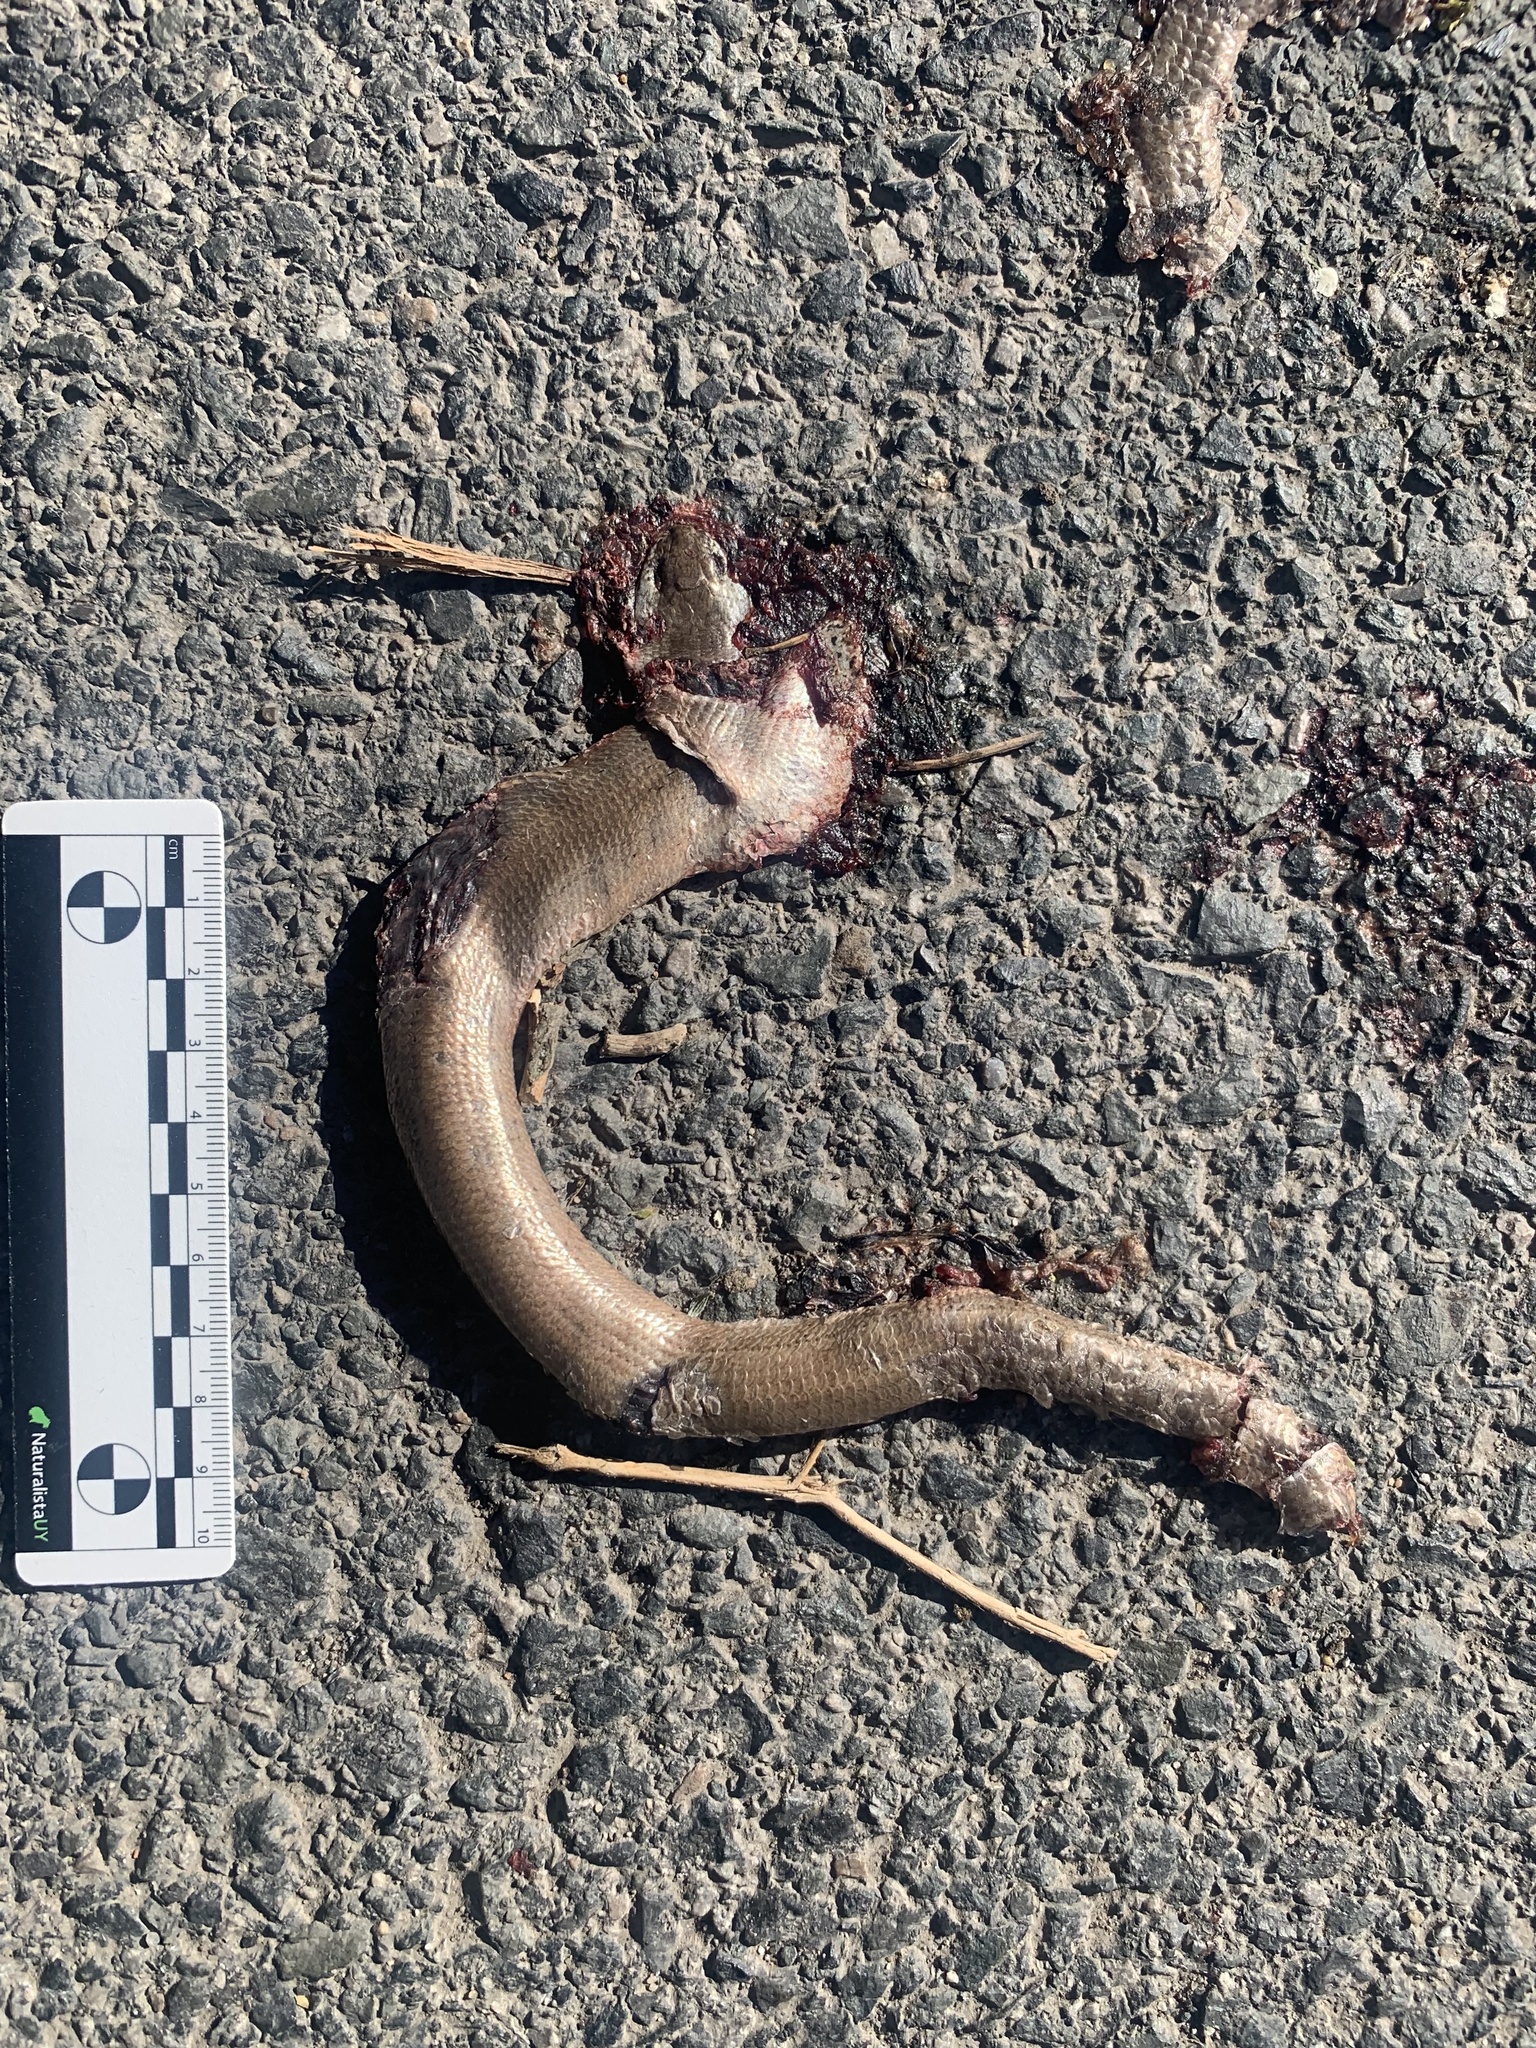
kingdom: Animalia
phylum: Chordata
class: Squamata
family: Anguidae
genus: Anguis
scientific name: Anguis fragilis
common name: Slow worm
